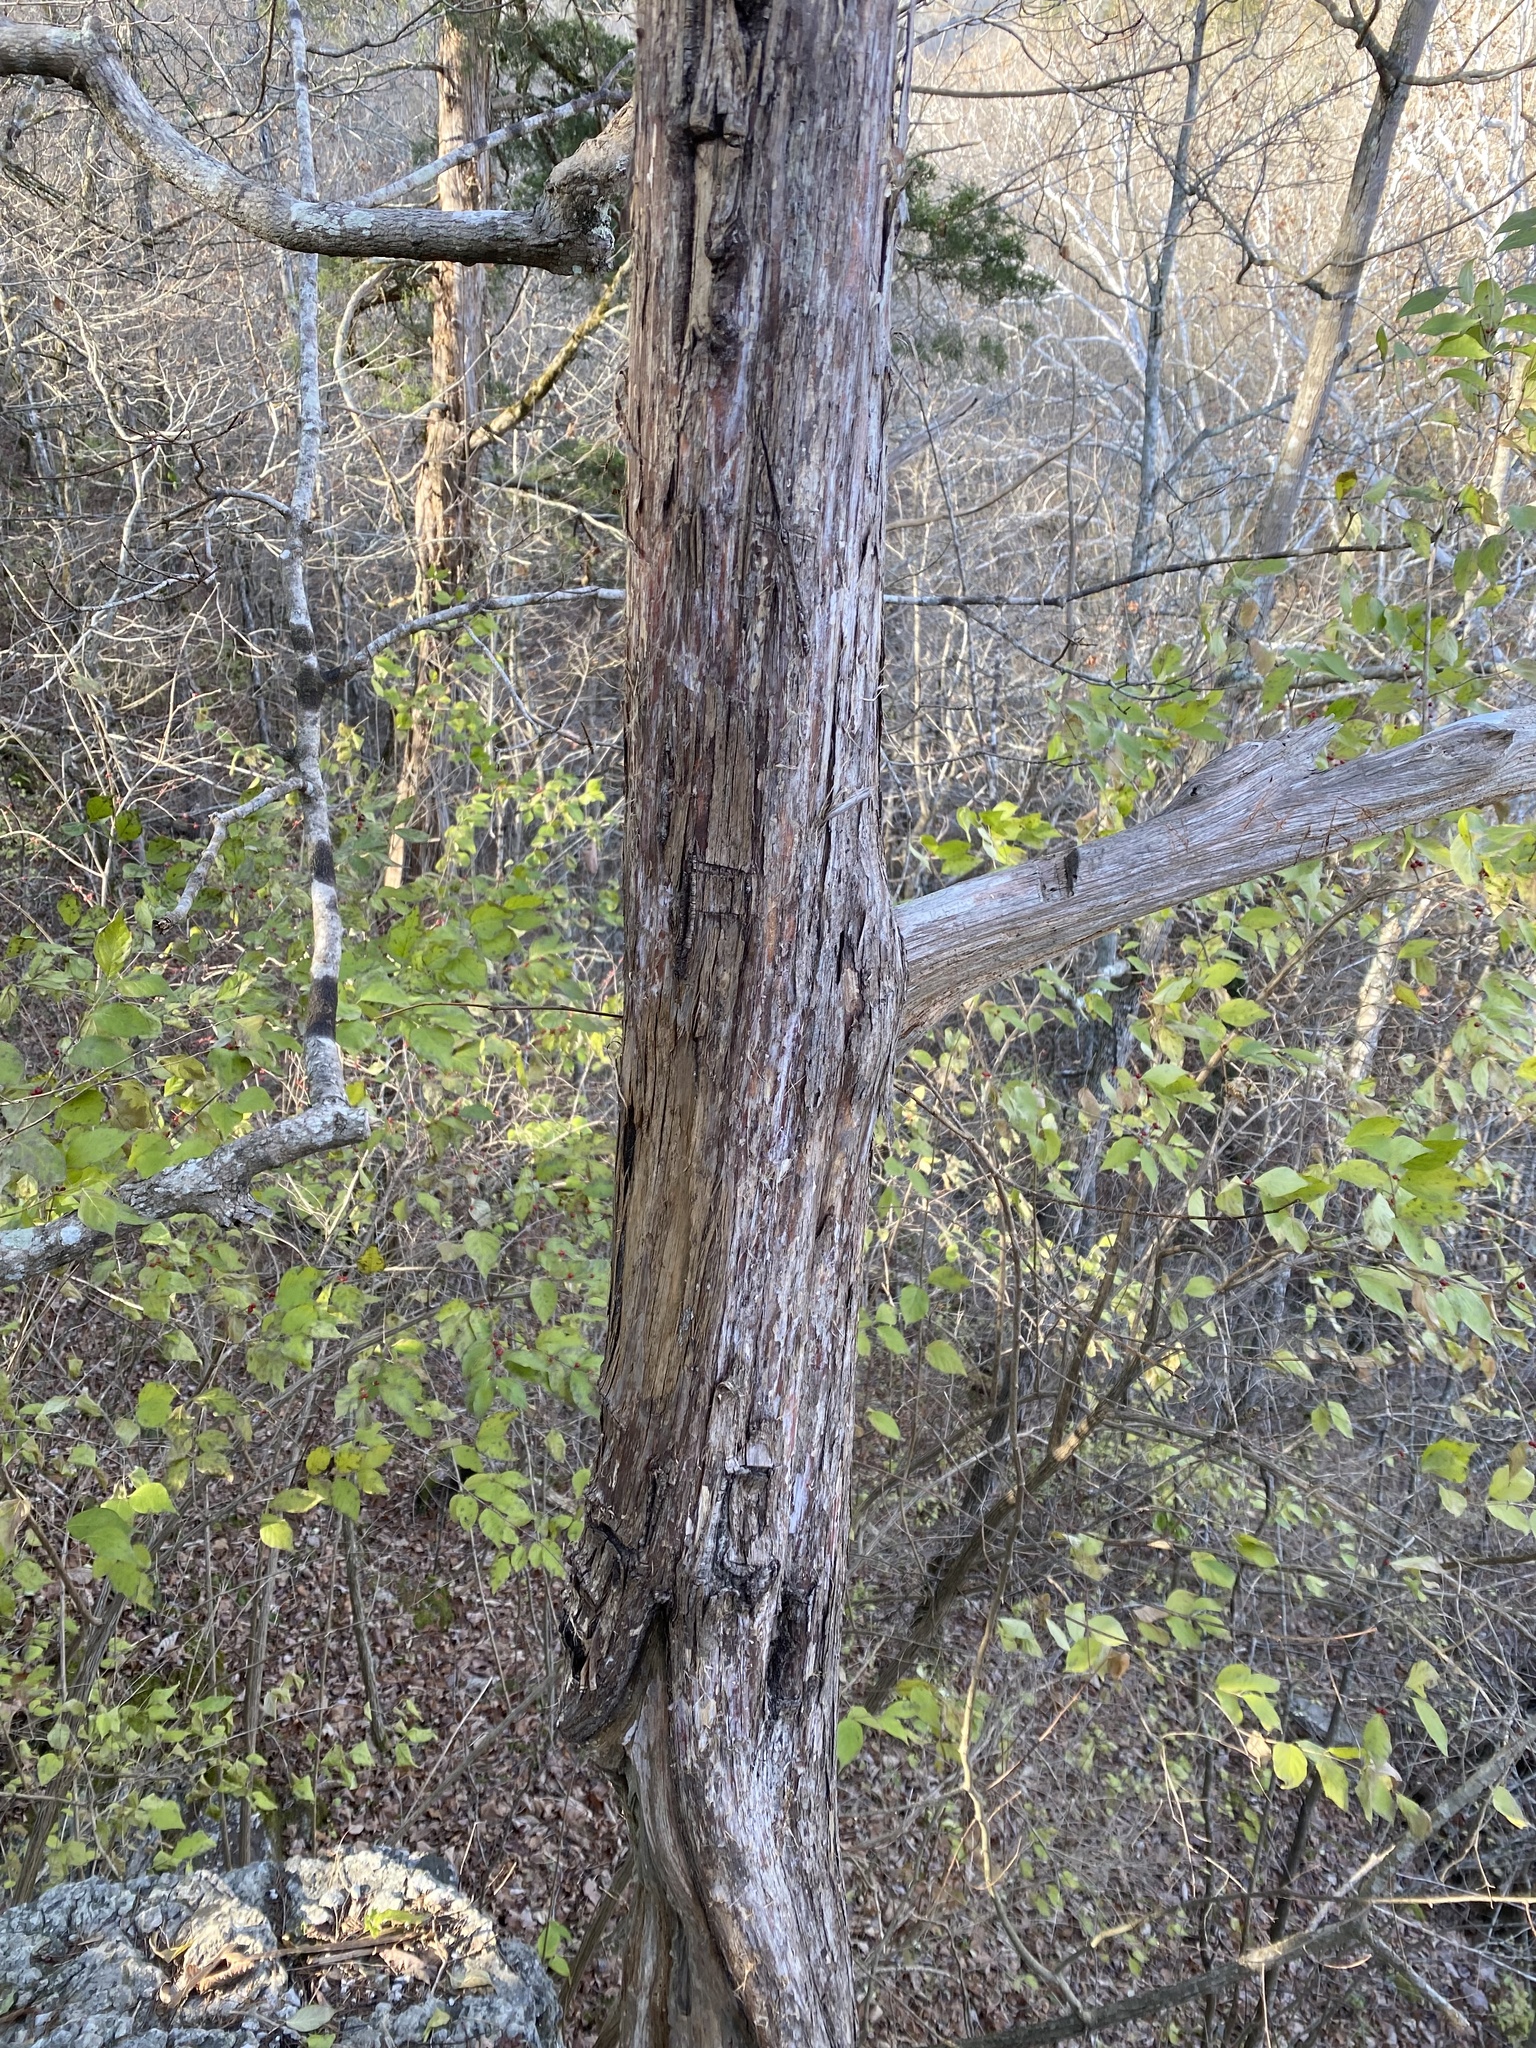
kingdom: Plantae
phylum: Tracheophyta
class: Pinopsida
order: Pinales
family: Cupressaceae
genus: Juniperus
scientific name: Juniperus virginiana
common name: Red juniper
